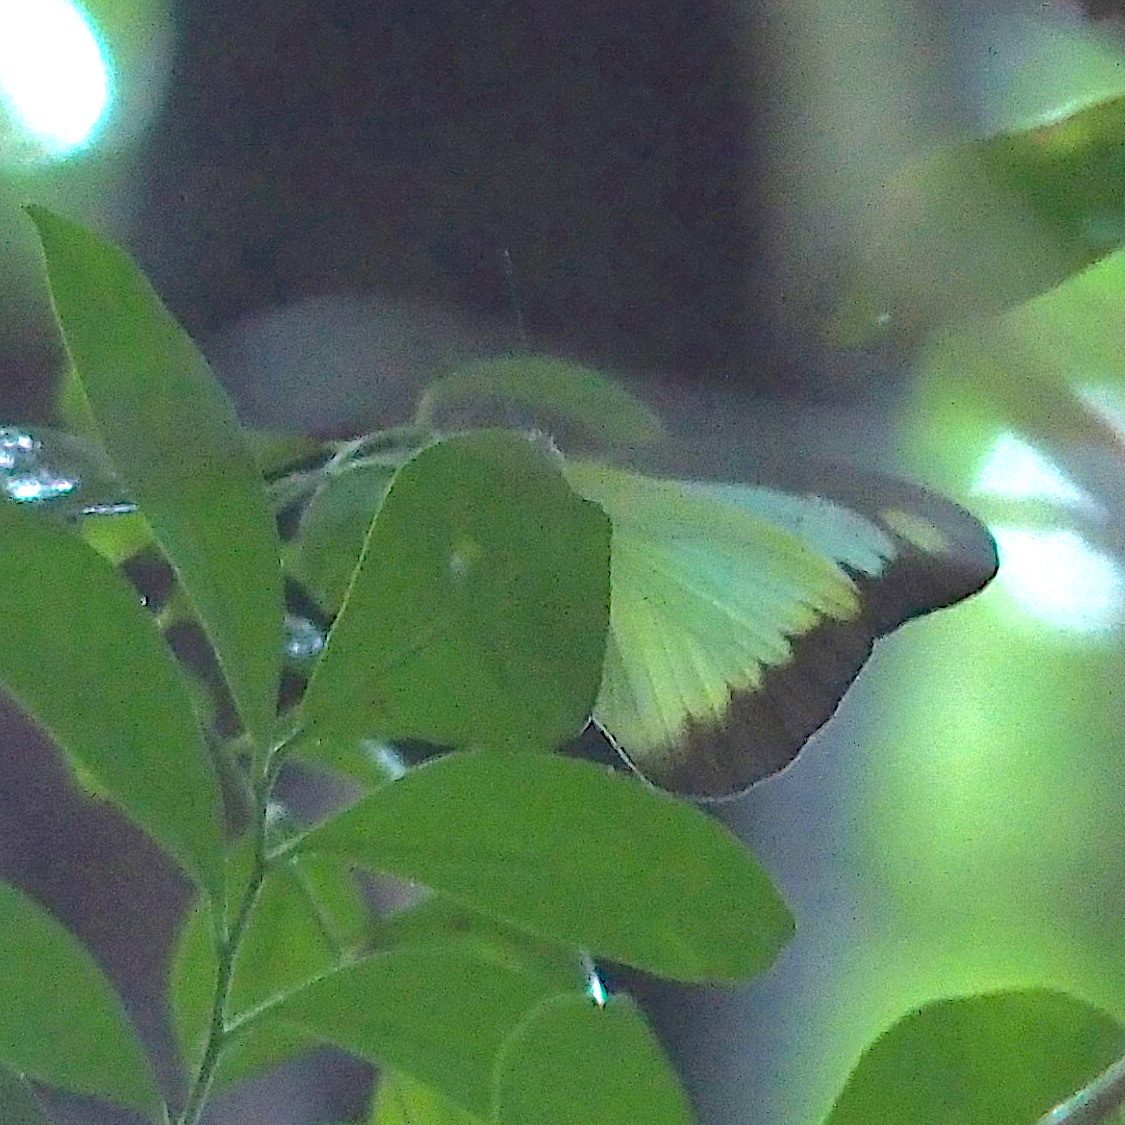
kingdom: Animalia
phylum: Arthropoda
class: Insecta
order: Lepidoptera
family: Pieridae
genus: Appias
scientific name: Appias lyncida
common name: Chocolate albatross
